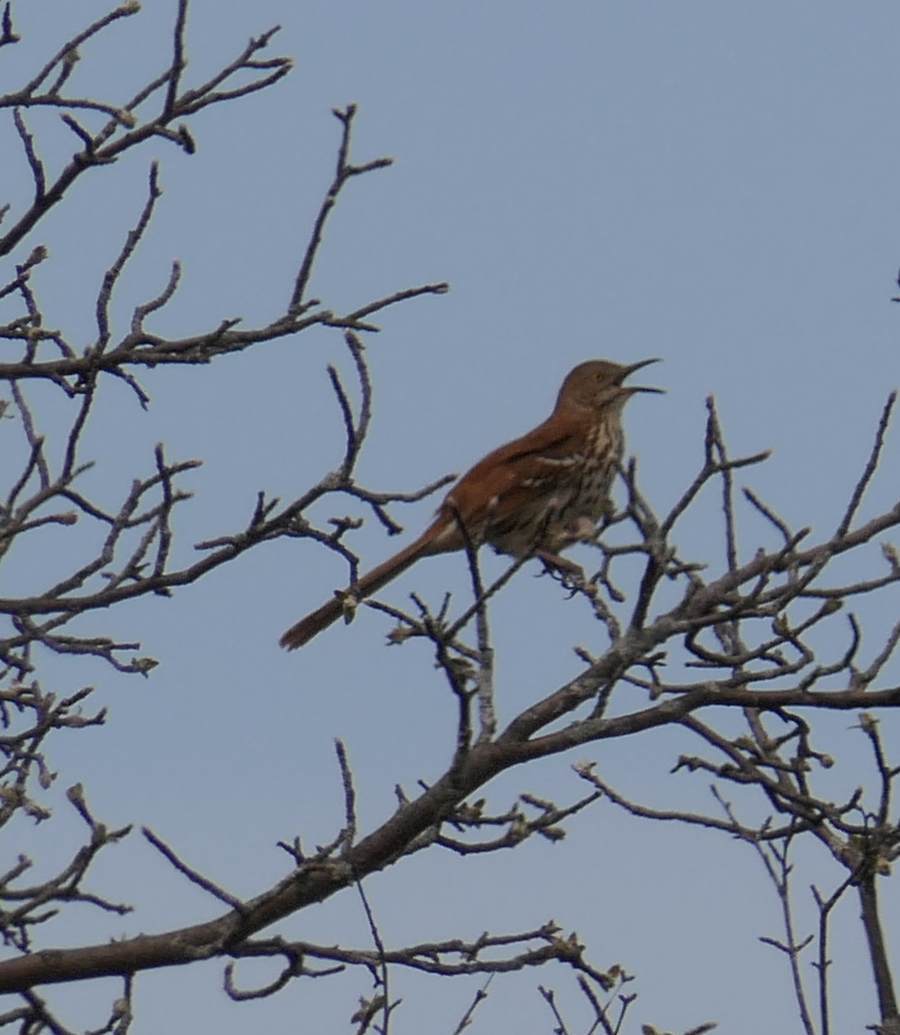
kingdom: Animalia
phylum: Chordata
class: Aves
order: Passeriformes
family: Mimidae
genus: Toxostoma
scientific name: Toxostoma rufum
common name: Brown thrasher
